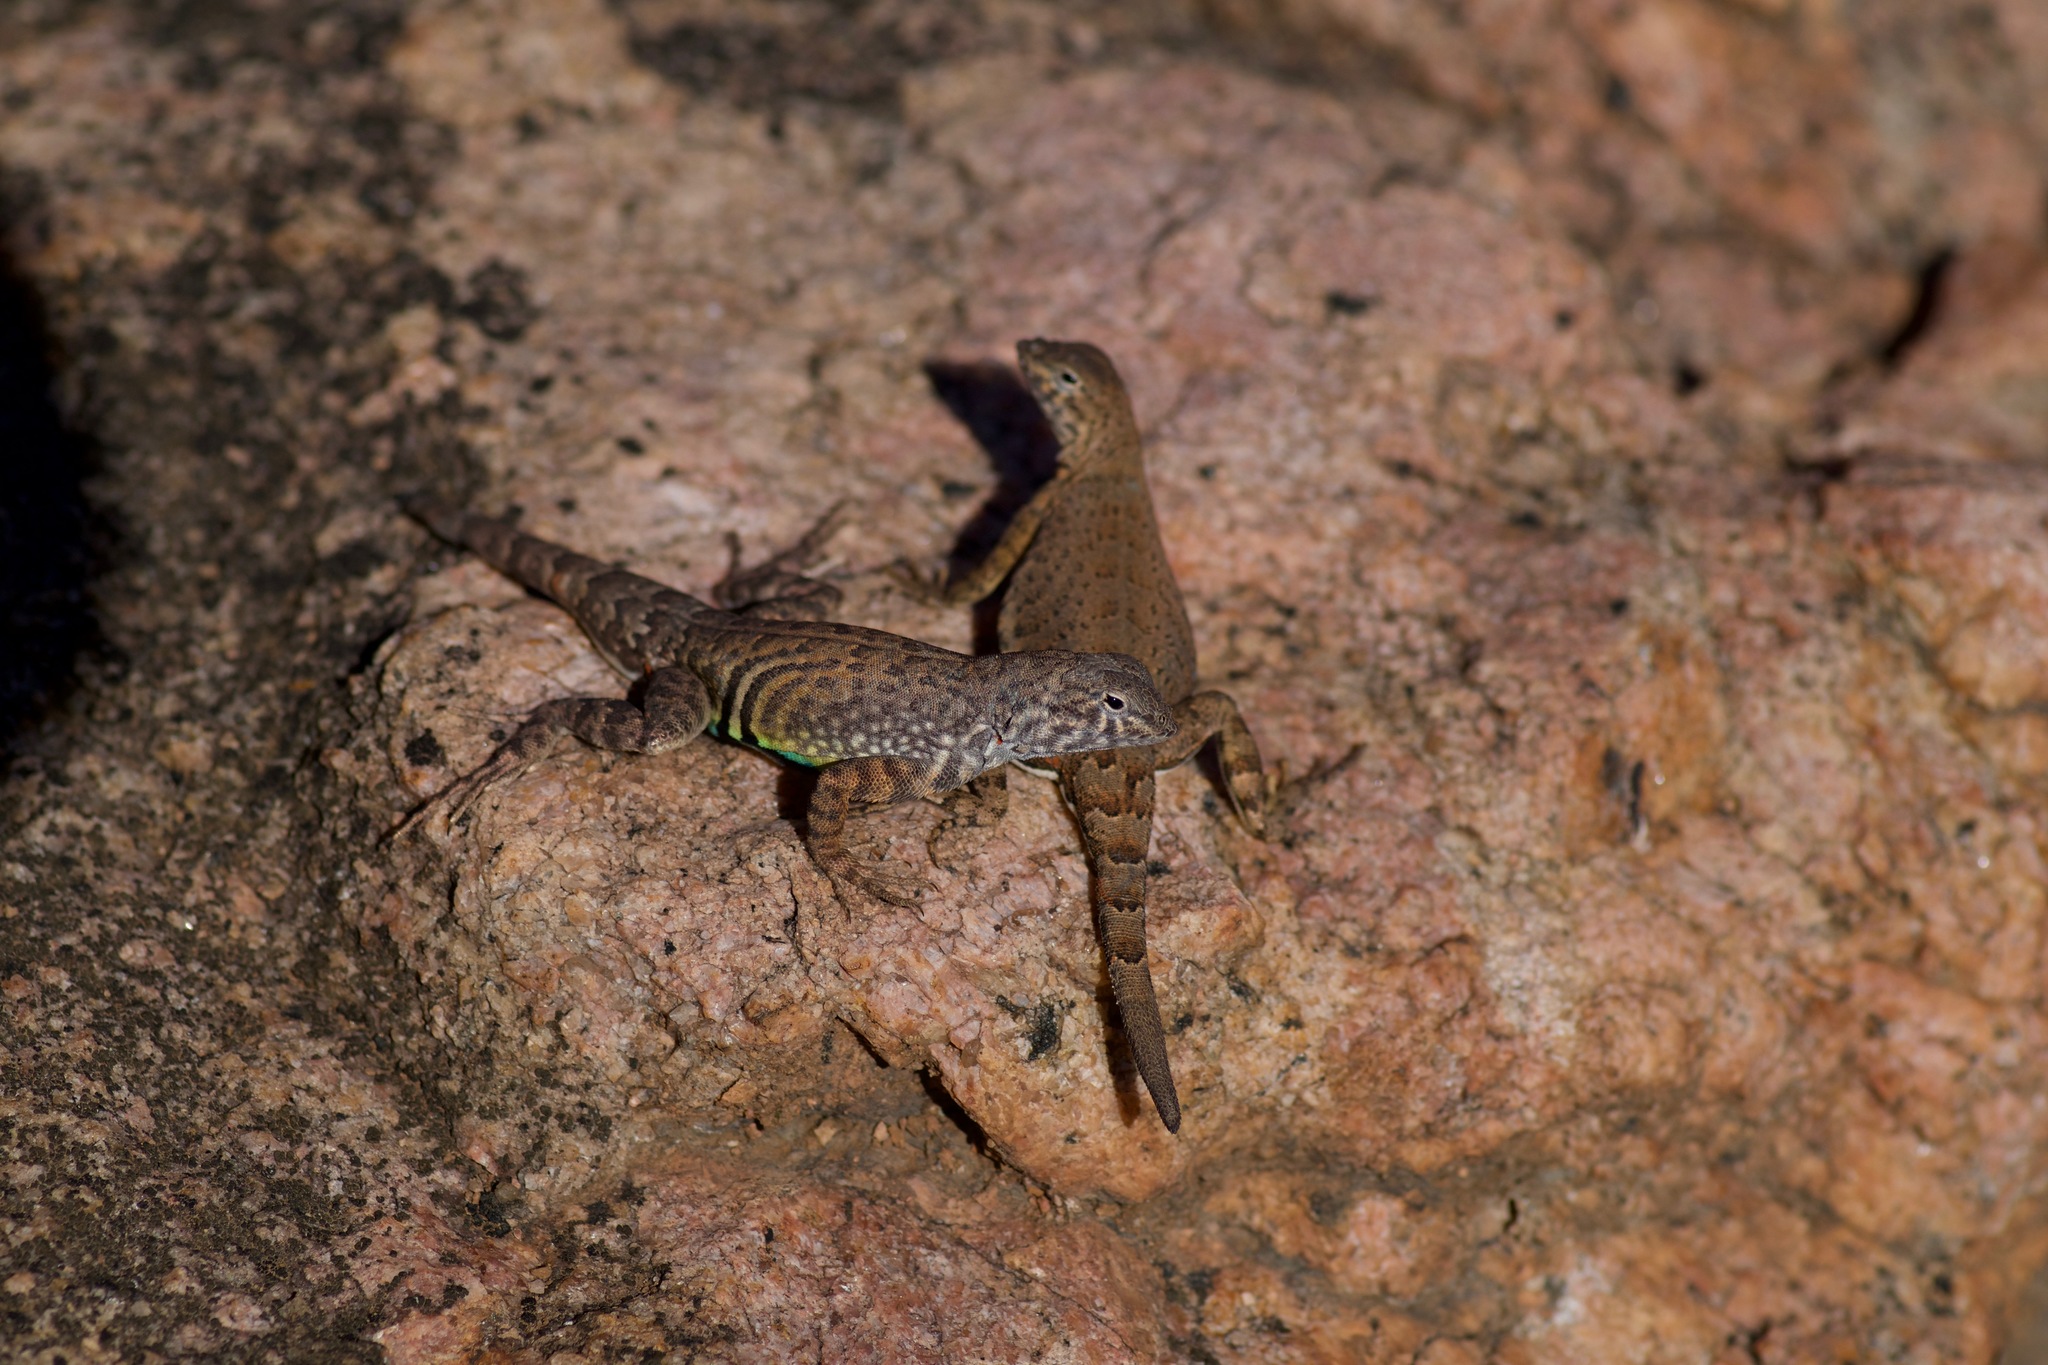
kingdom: Animalia
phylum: Chordata
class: Squamata
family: Phrynosomatidae
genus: Cophosaurus
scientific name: Cophosaurus texanus
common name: Greater earless lizard
